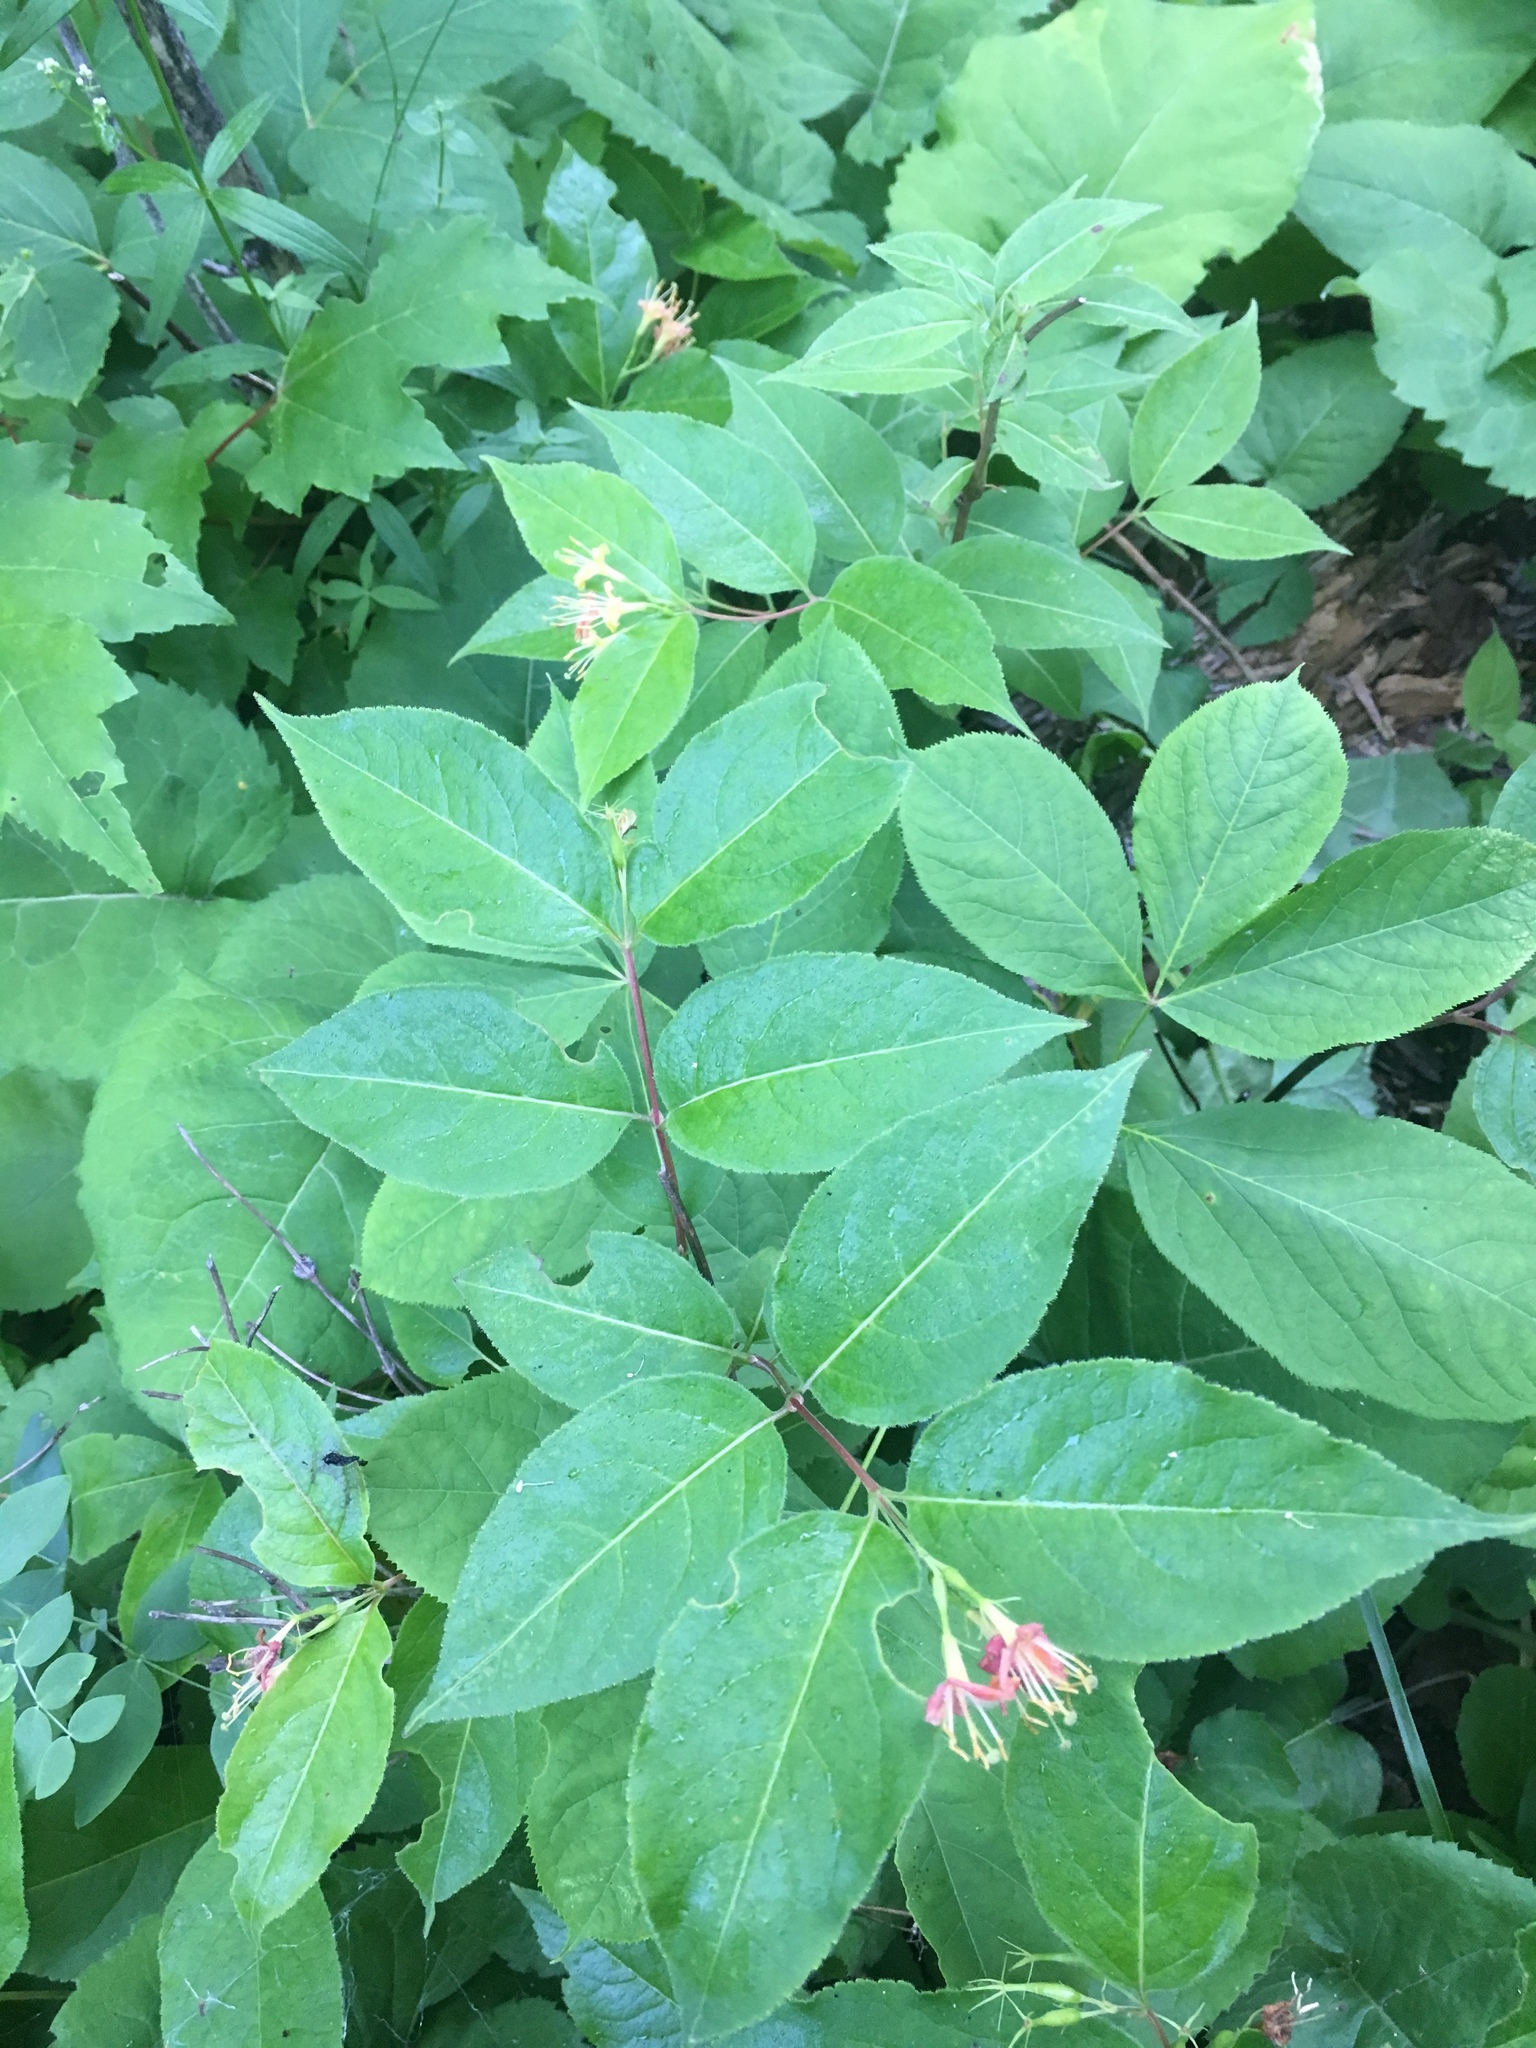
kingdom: Plantae
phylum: Tracheophyta
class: Magnoliopsida
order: Dipsacales
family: Caprifoliaceae
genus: Diervilla
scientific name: Diervilla lonicera
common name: Bush-honeysuckle
